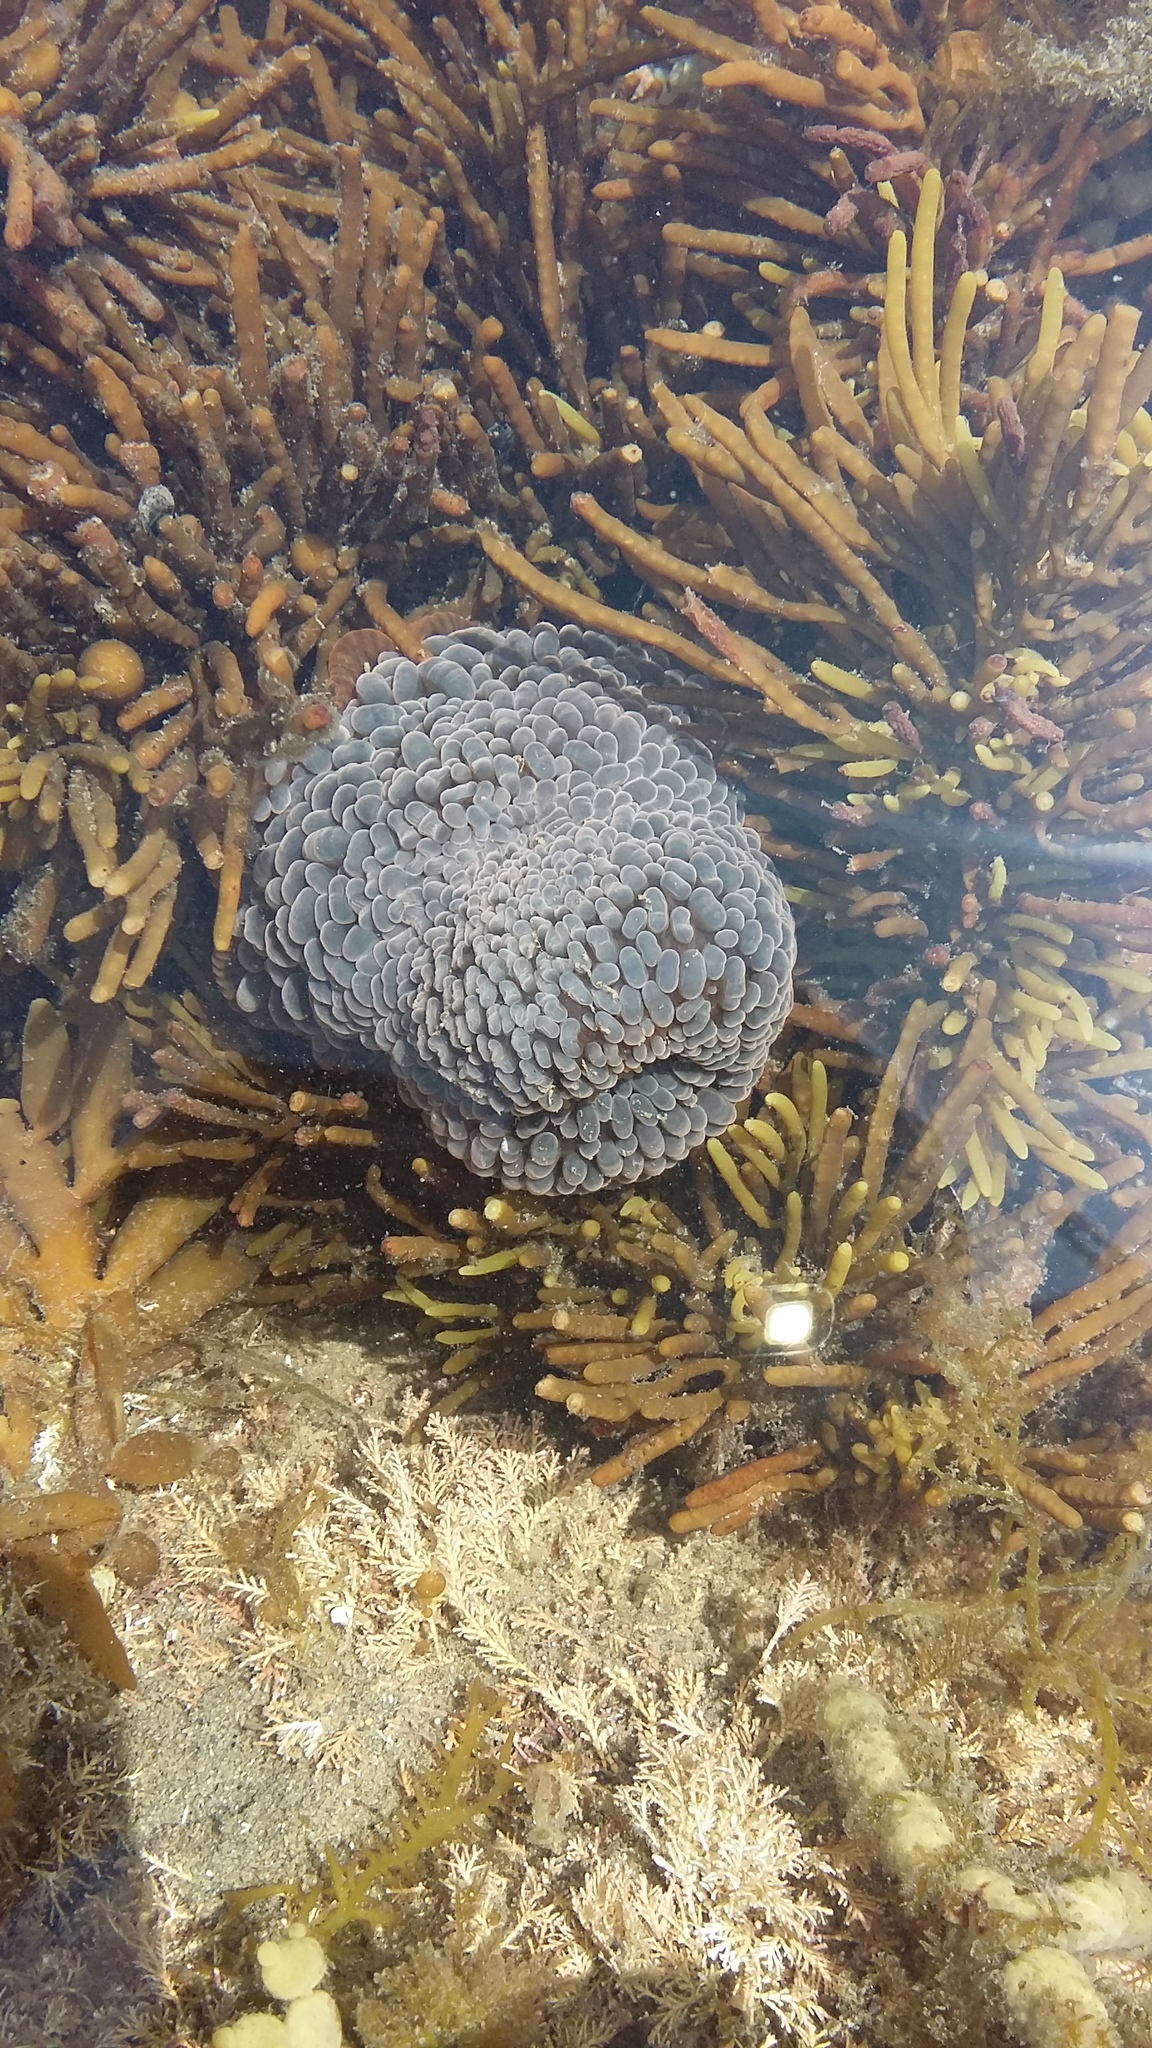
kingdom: Animalia
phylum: Cnidaria
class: Anthozoa
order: Actiniaria
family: Actiniidae
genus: Phlyctenactis
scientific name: Phlyctenactis tuberculosa
